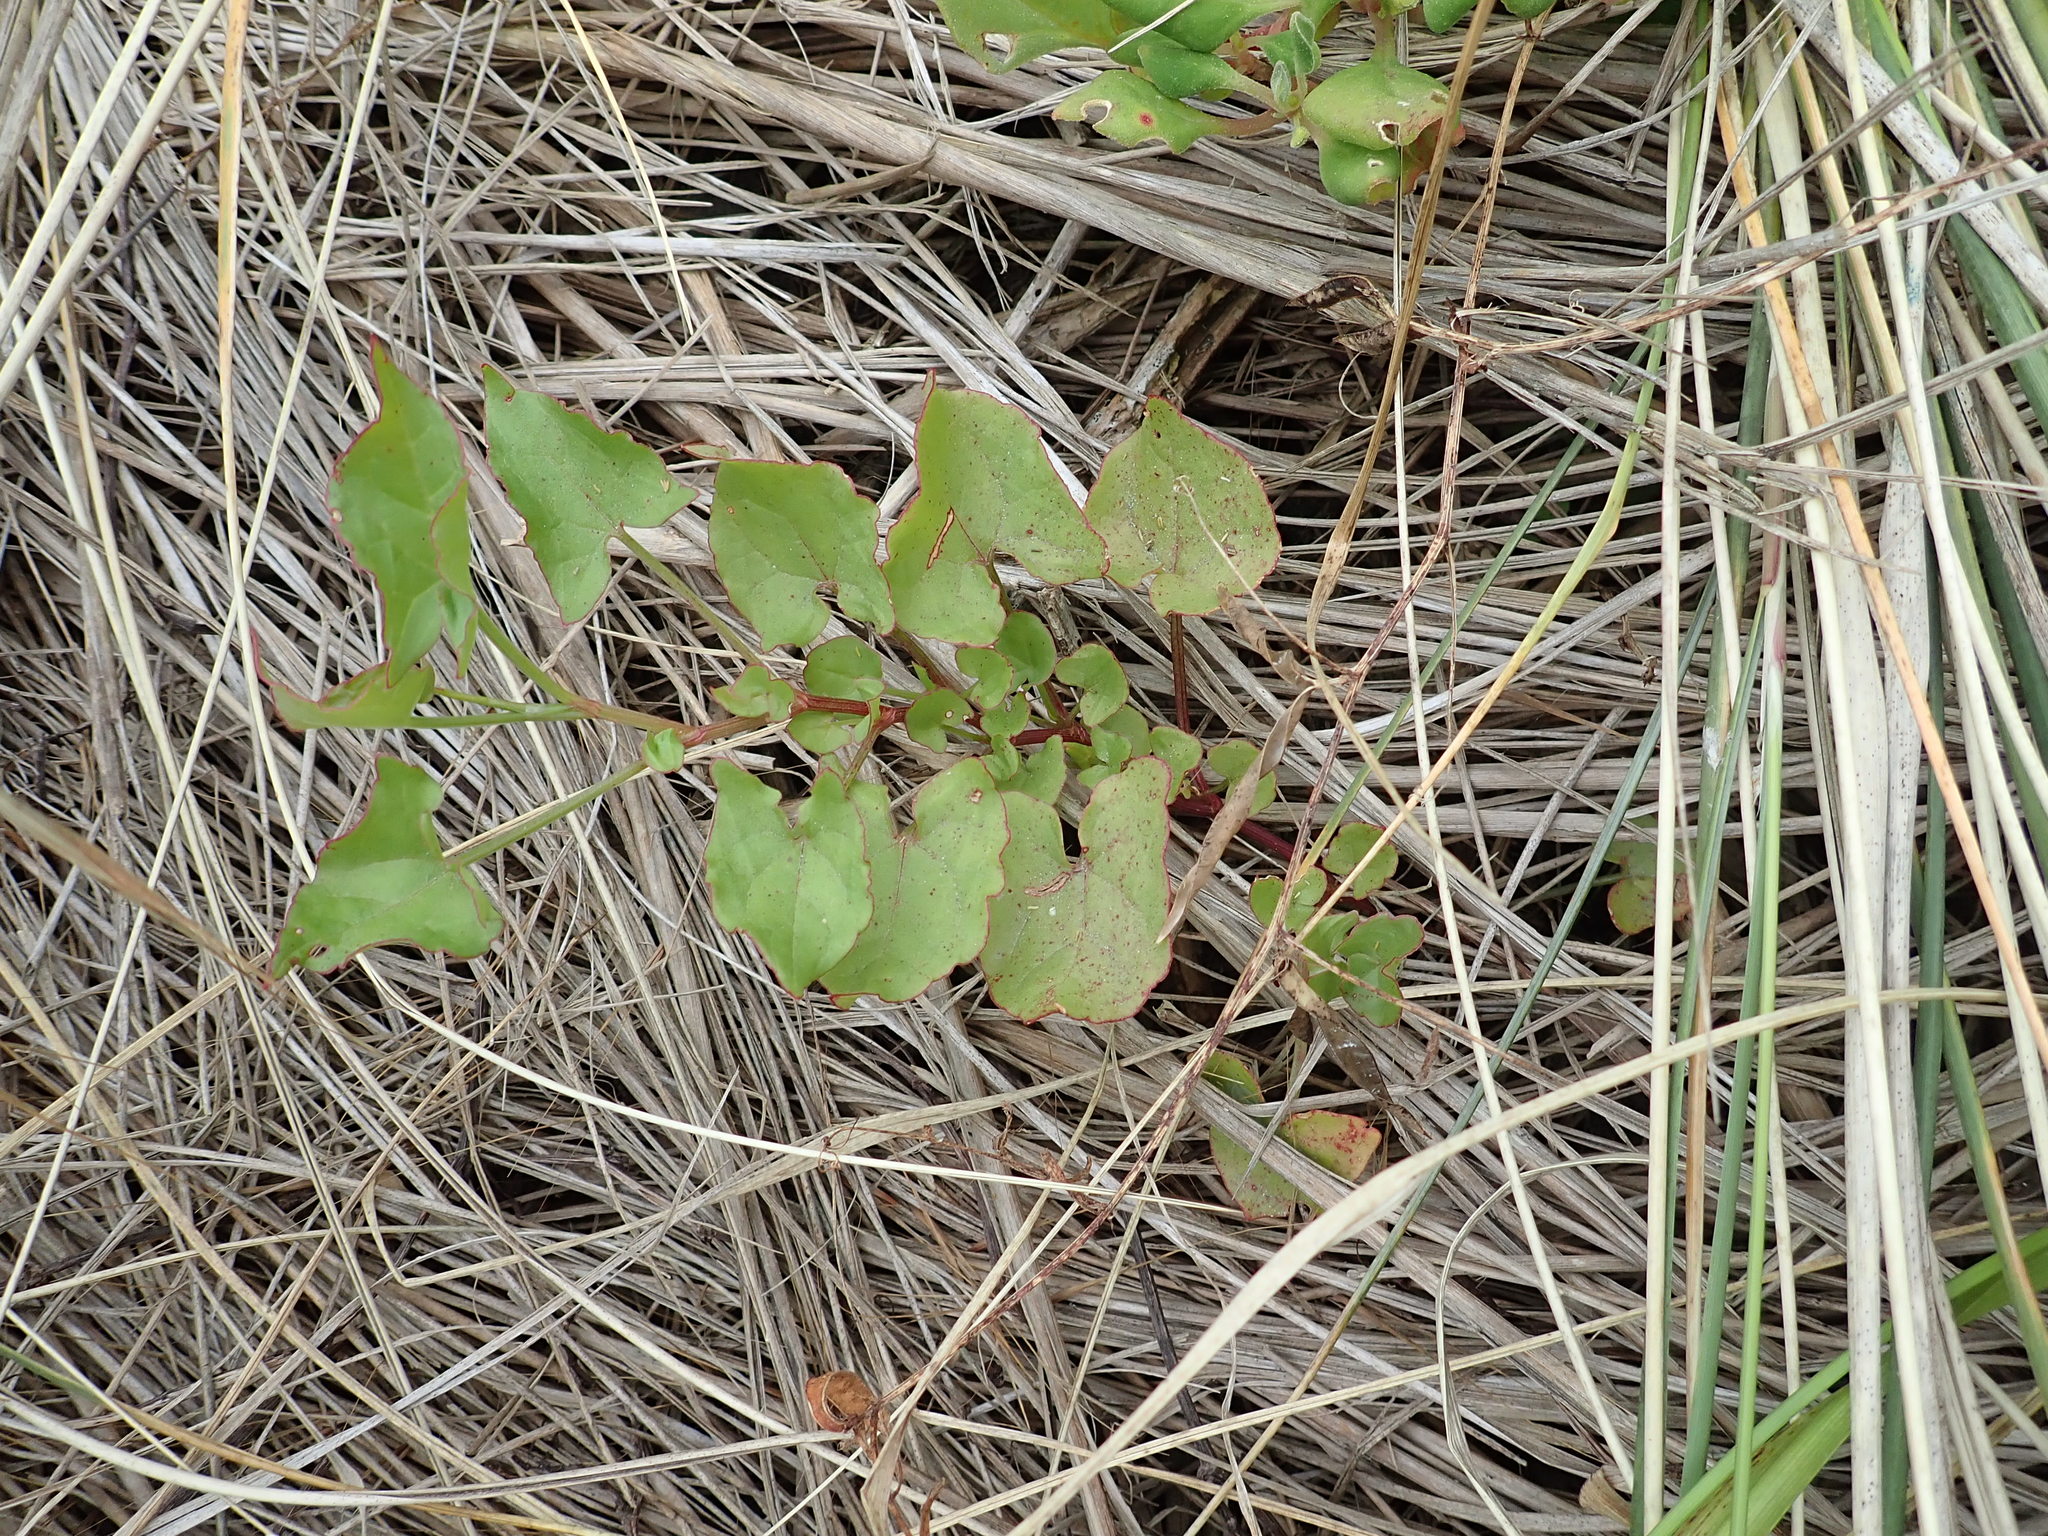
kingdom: Plantae
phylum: Tracheophyta
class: Magnoliopsida
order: Caryophyllales
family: Polygonaceae
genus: Rumex
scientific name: Rumex sagittatus
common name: Climbing dock
